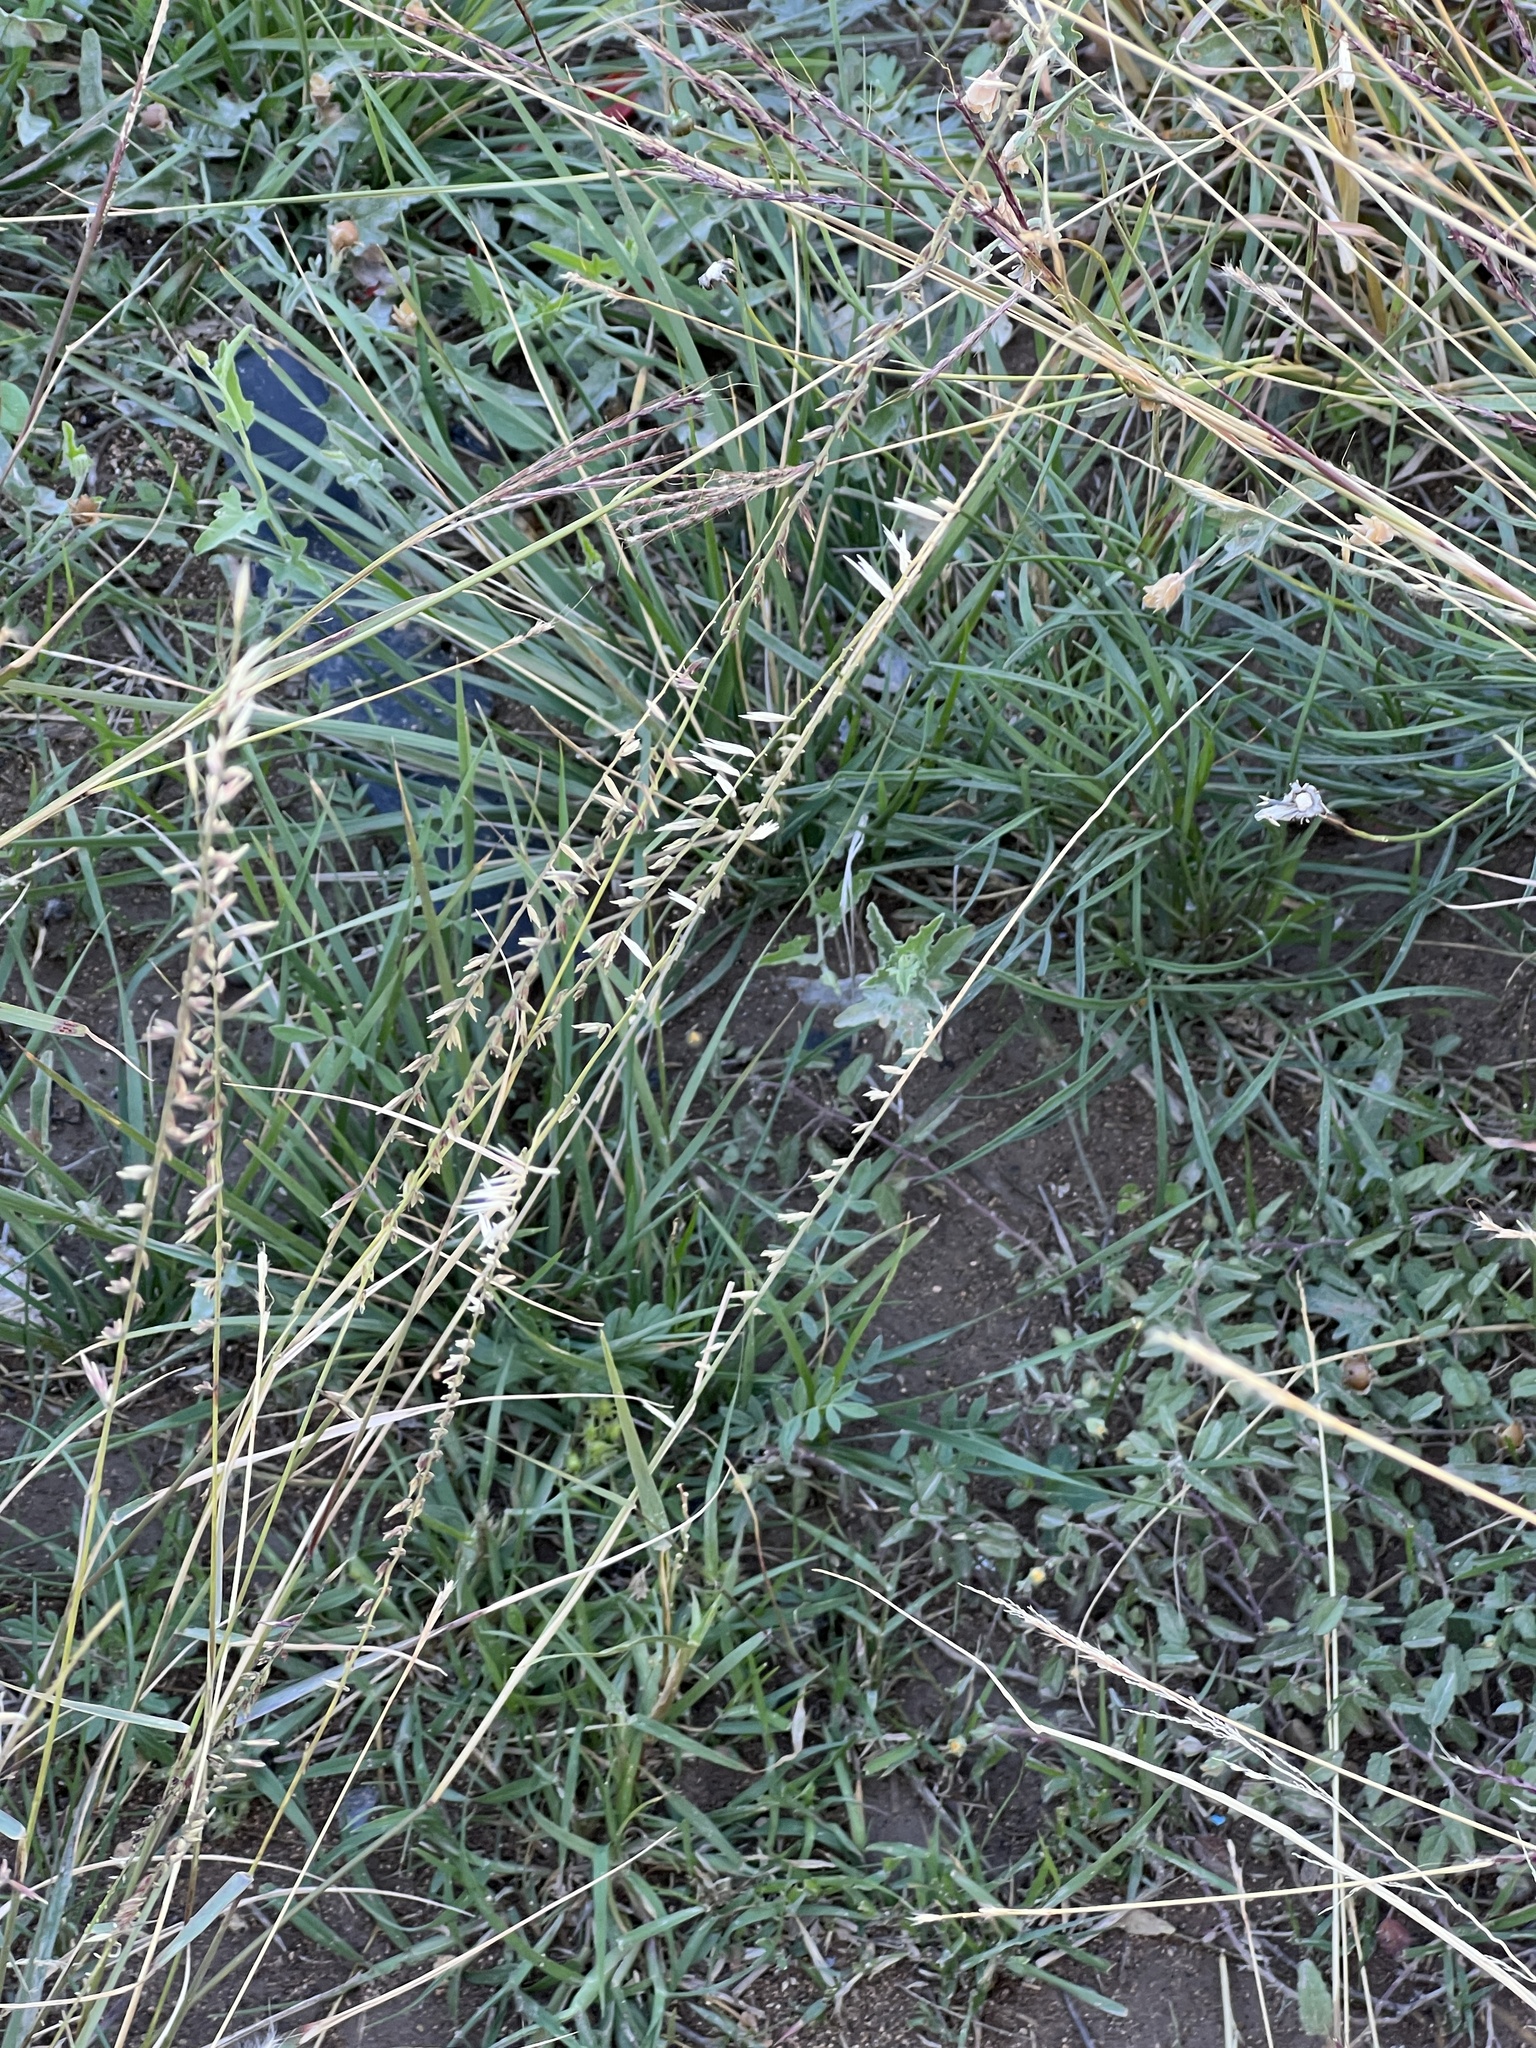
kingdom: Plantae
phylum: Tracheophyta
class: Liliopsida
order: Poales
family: Poaceae
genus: Bouteloua
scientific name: Bouteloua curtipendula
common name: Side-oats grama
